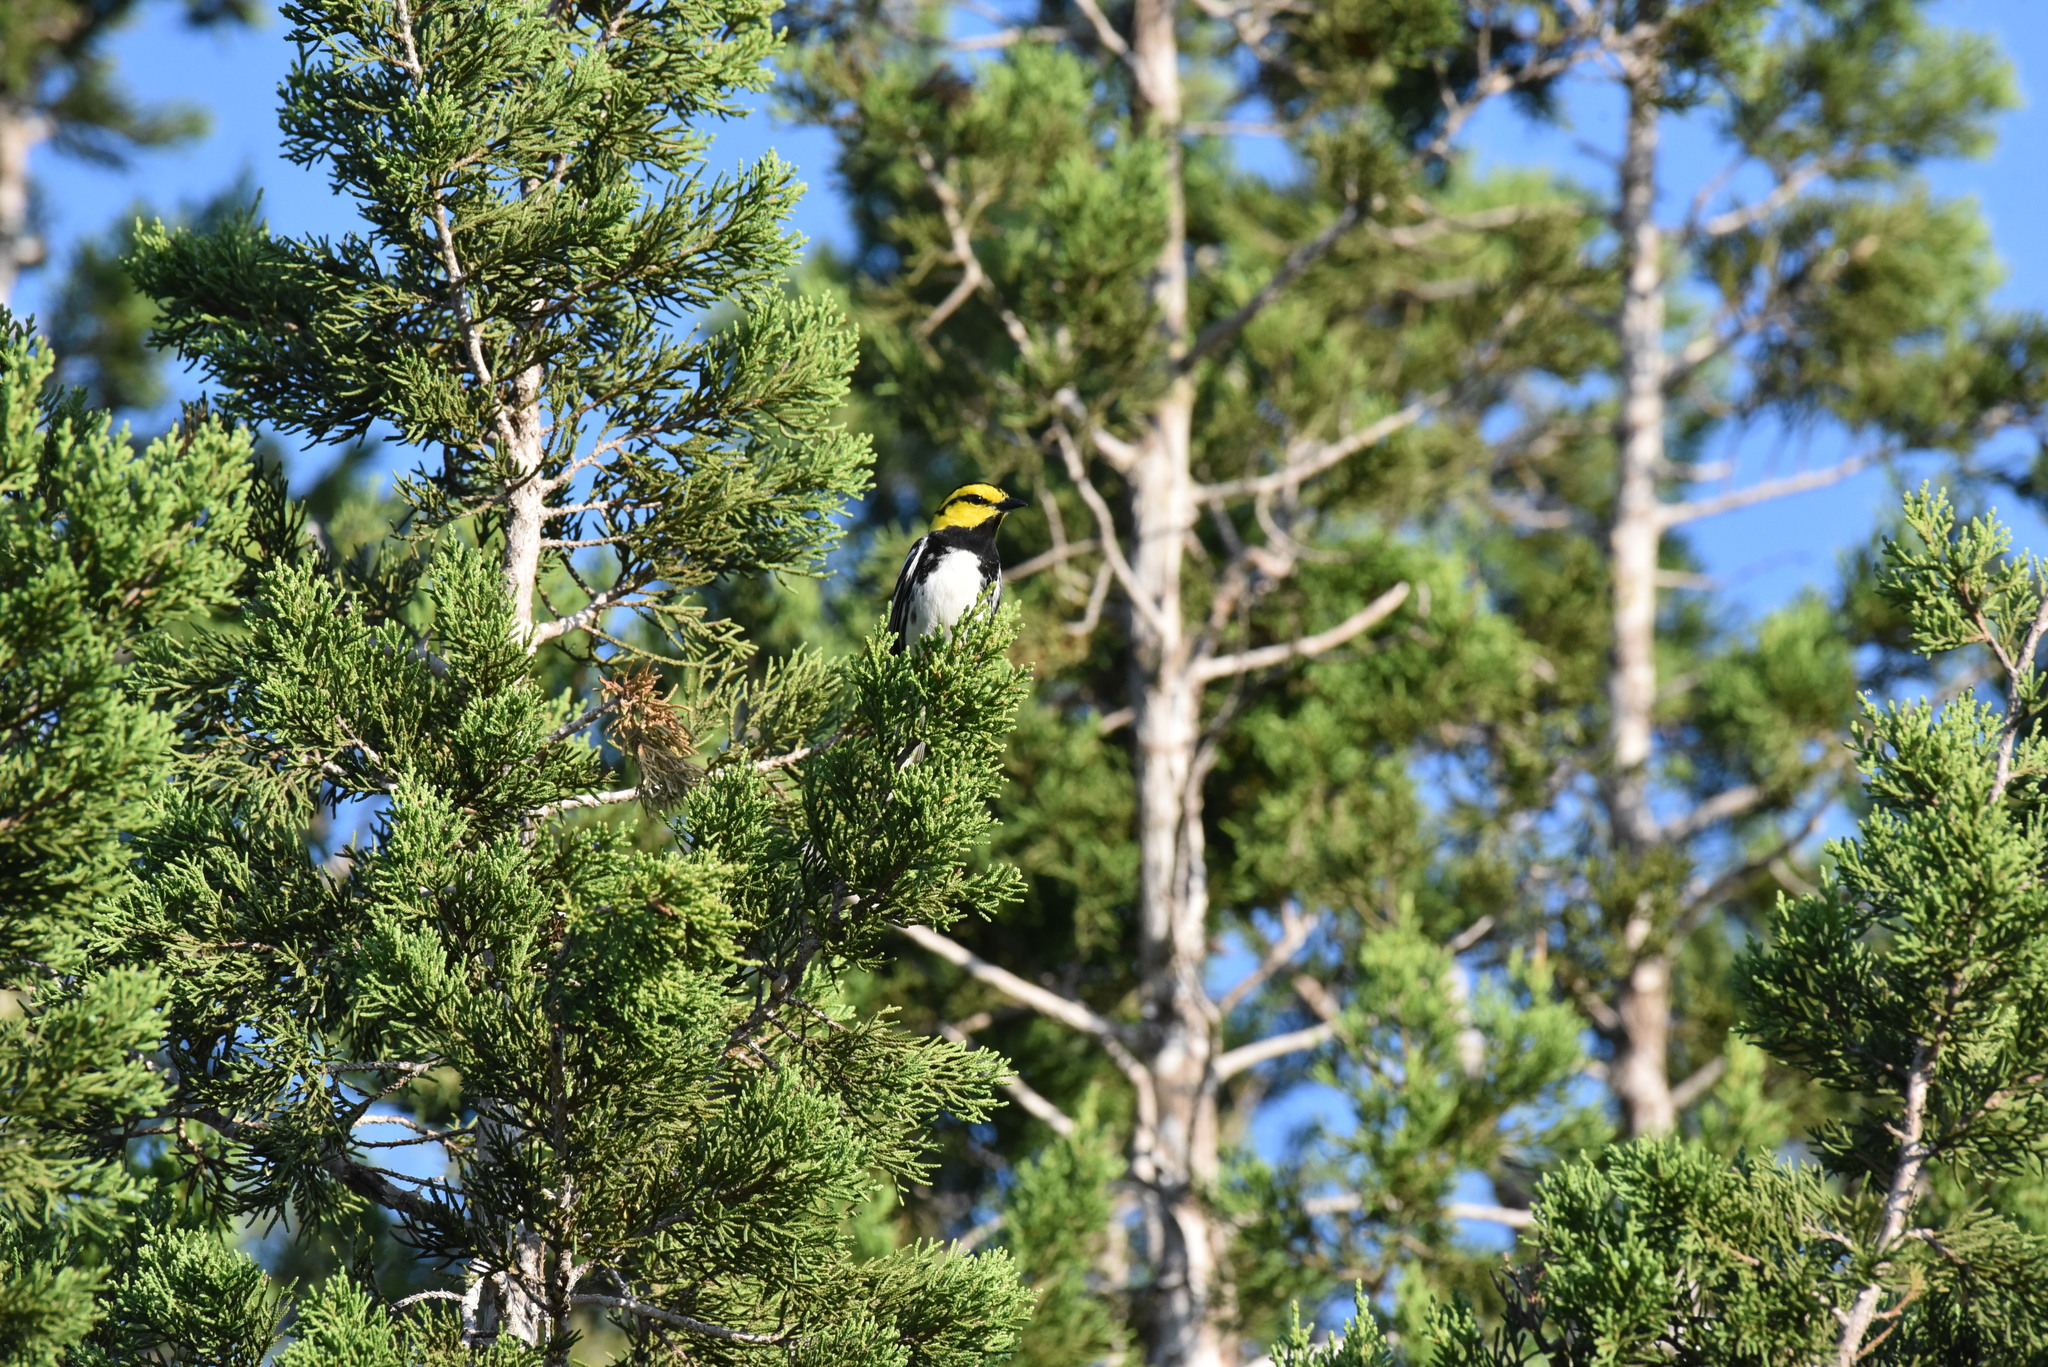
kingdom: Animalia
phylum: Chordata
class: Aves
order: Passeriformes
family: Parulidae
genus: Setophaga
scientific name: Setophaga chrysoparia
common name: Golden-cheeked warbler
